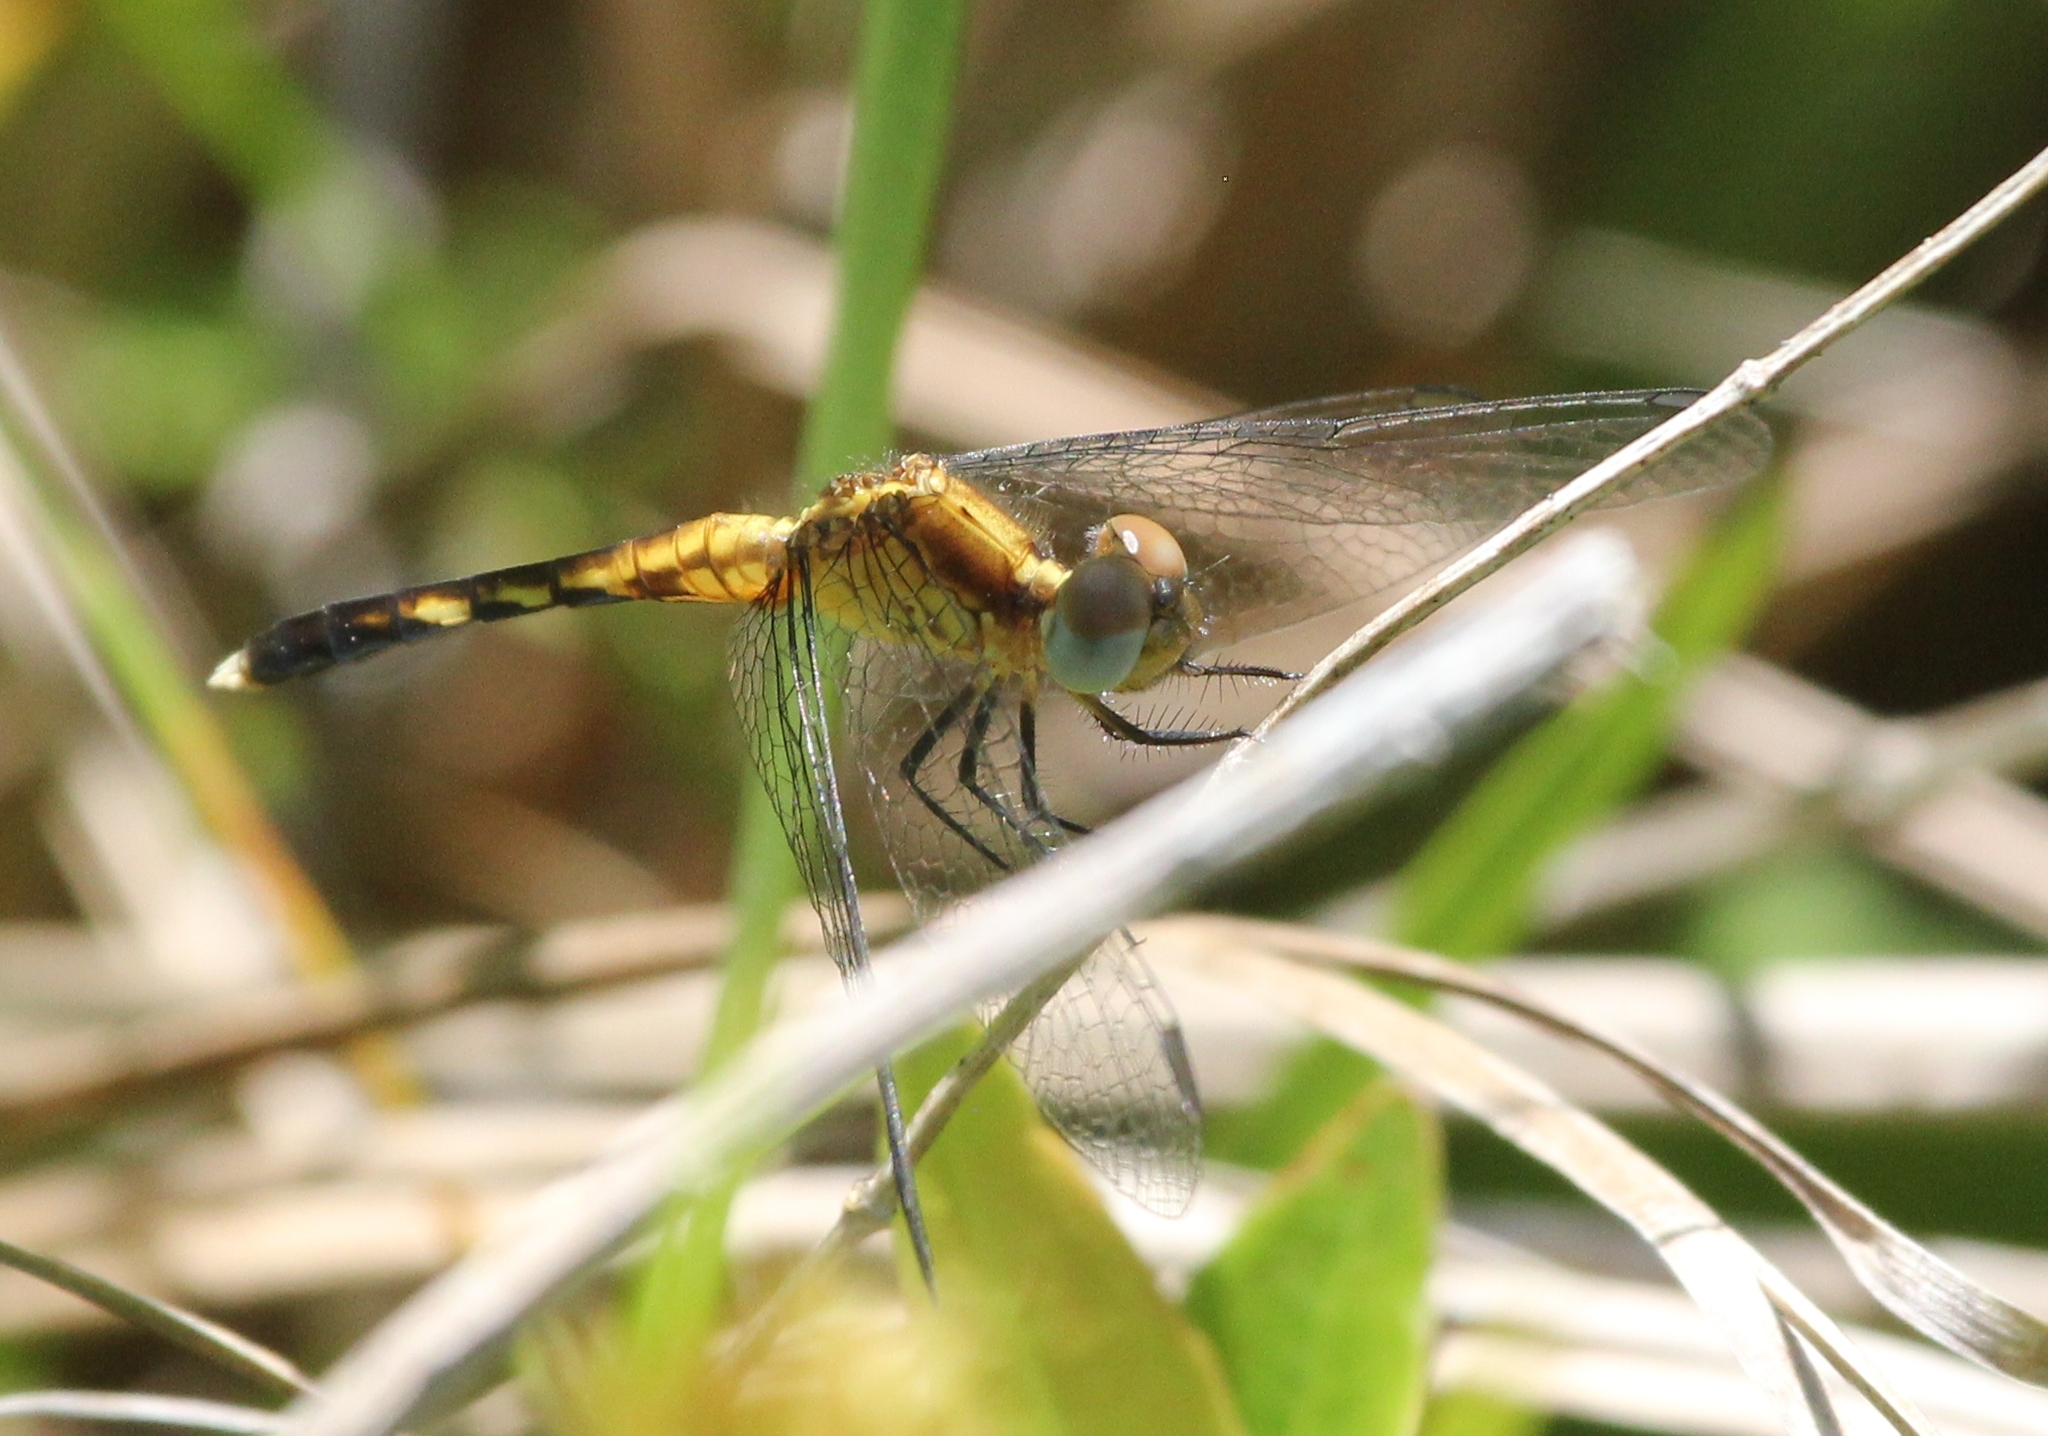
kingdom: Animalia
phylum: Arthropoda
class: Insecta
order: Odonata
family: Libellulidae
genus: Erythrodiplax
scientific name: Erythrodiplax minuscula
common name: Little blue dragonlet
